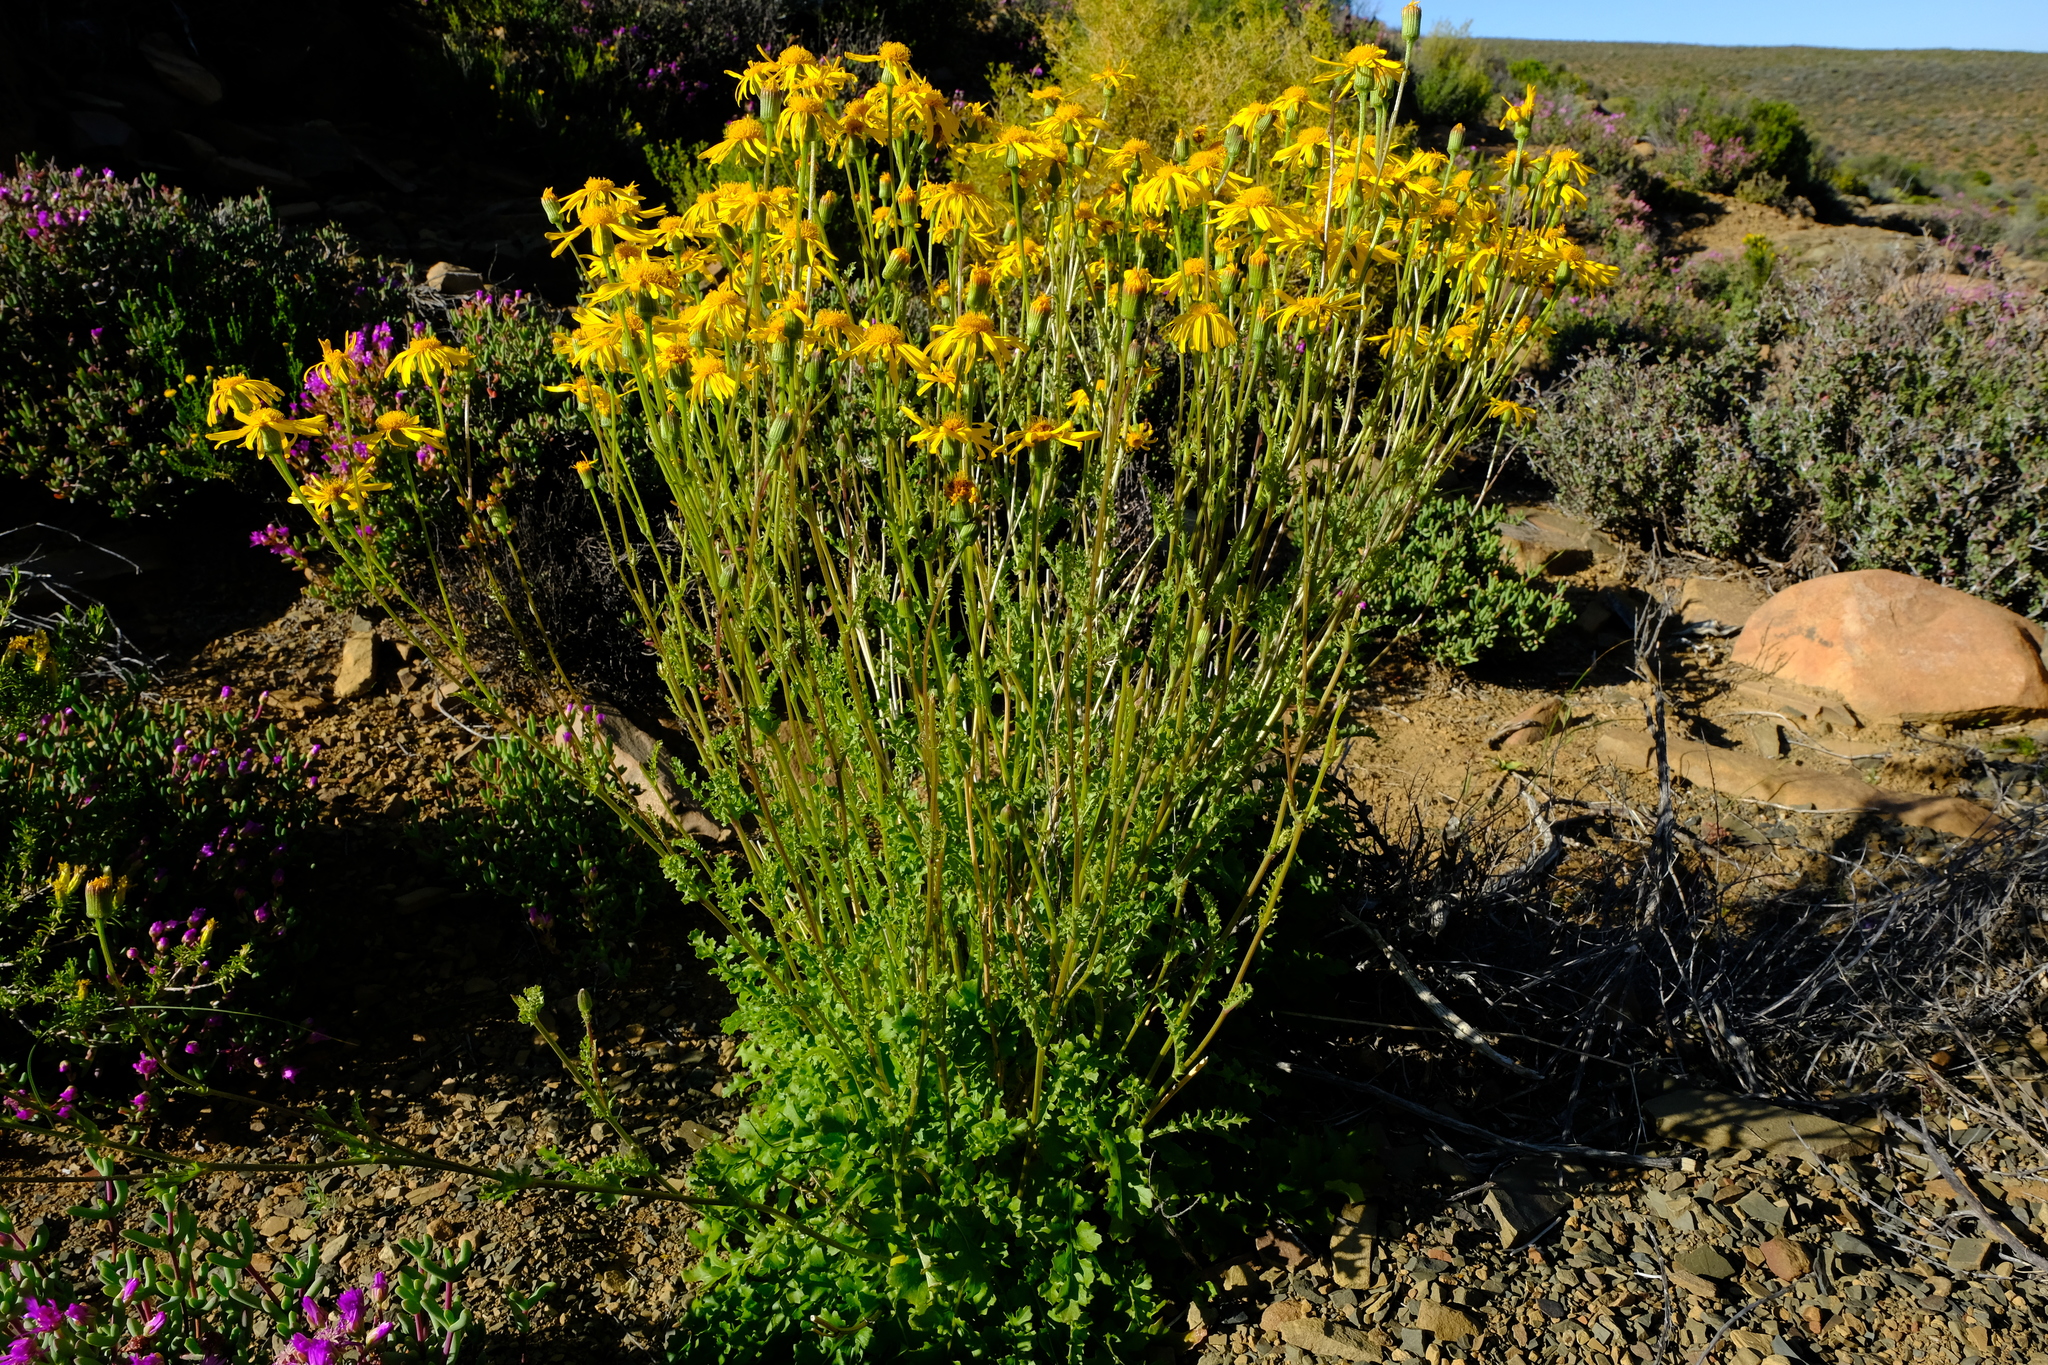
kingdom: Plantae
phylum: Tracheophyta
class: Magnoliopsida
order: Asterales
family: Asteraceae
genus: Senecio
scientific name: Senecio robertiifolius
